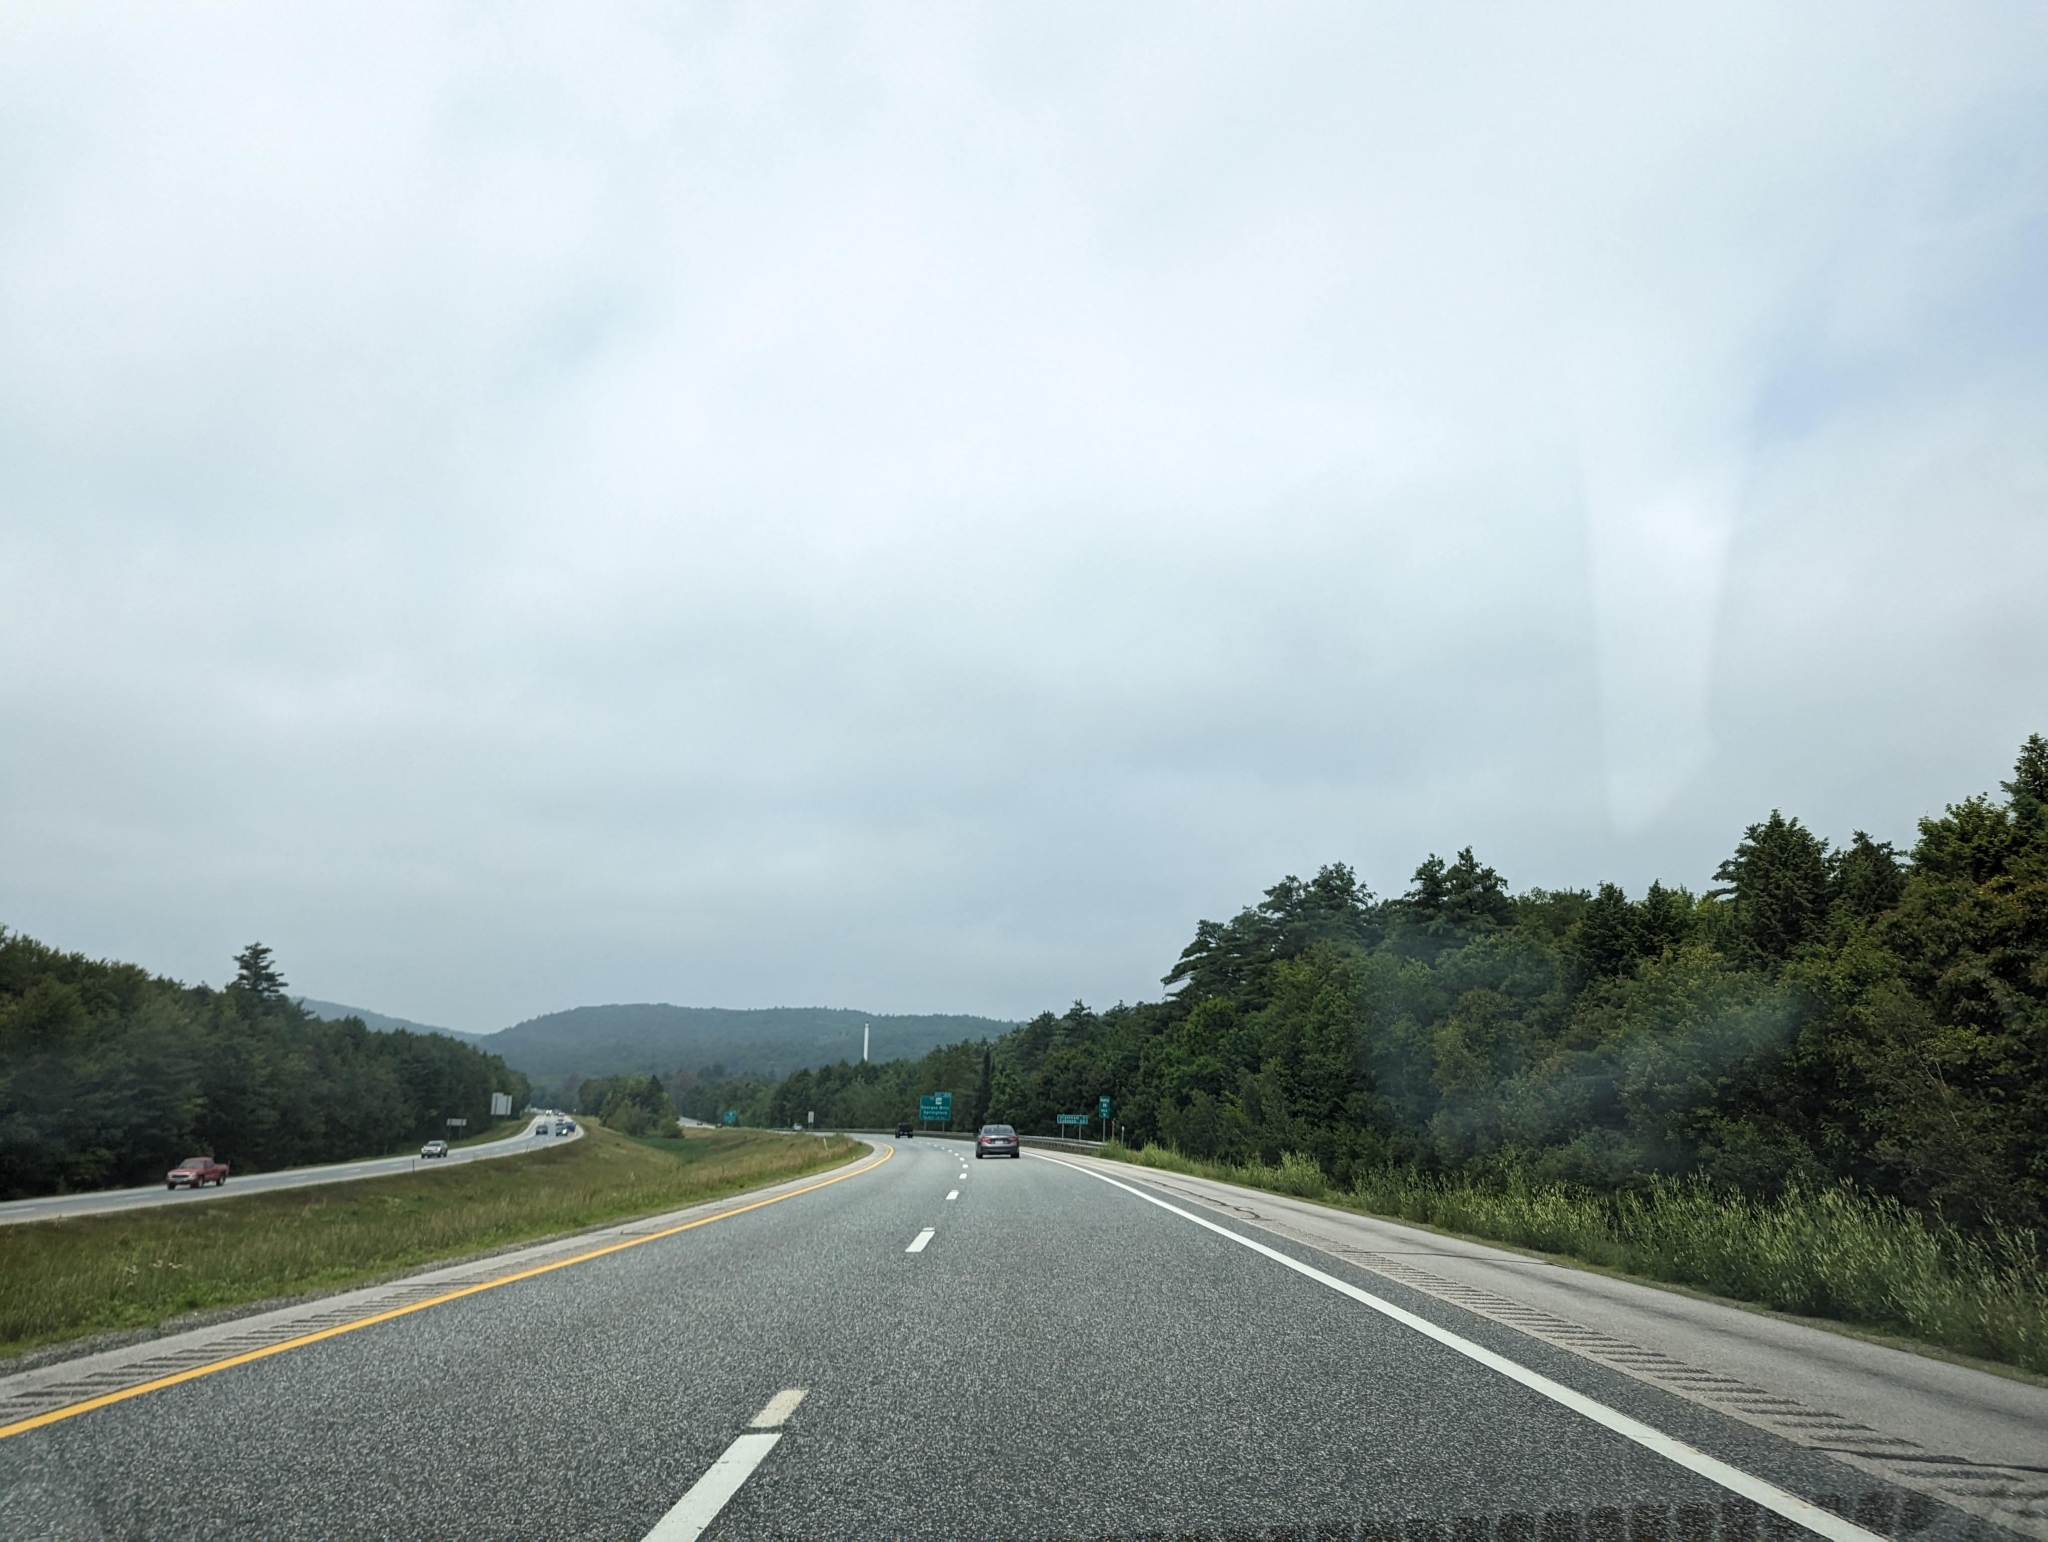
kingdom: Plantae
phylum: Tracheophyta
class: Pinopsida
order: Pinales
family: Pinaceae
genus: Pinus
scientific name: Pinus strobus
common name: Weymouth pine
